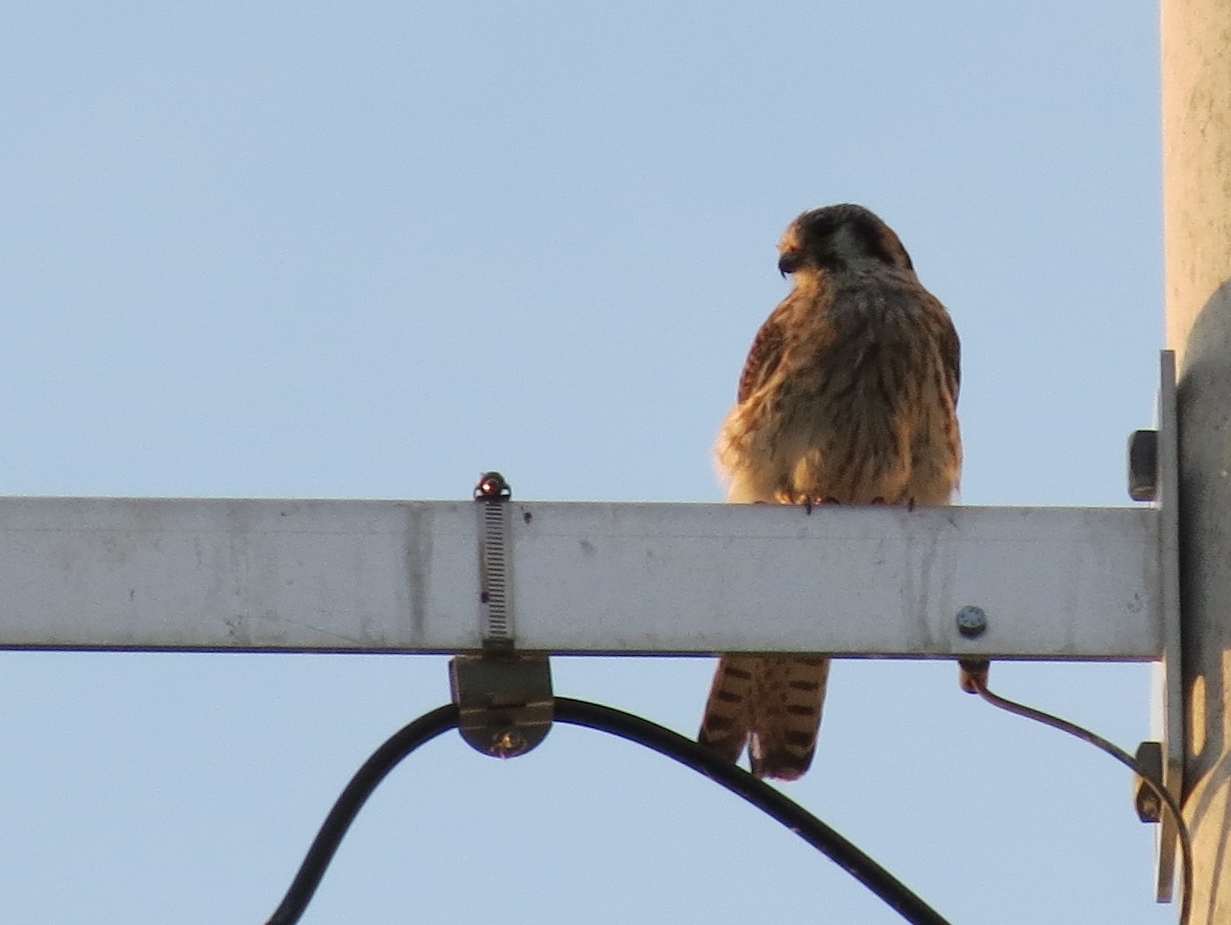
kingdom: Animalia
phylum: Chordata
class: Aves
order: Falconiformes
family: Falconidae
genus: Falco
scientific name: Falco sparverius
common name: American kestrel
